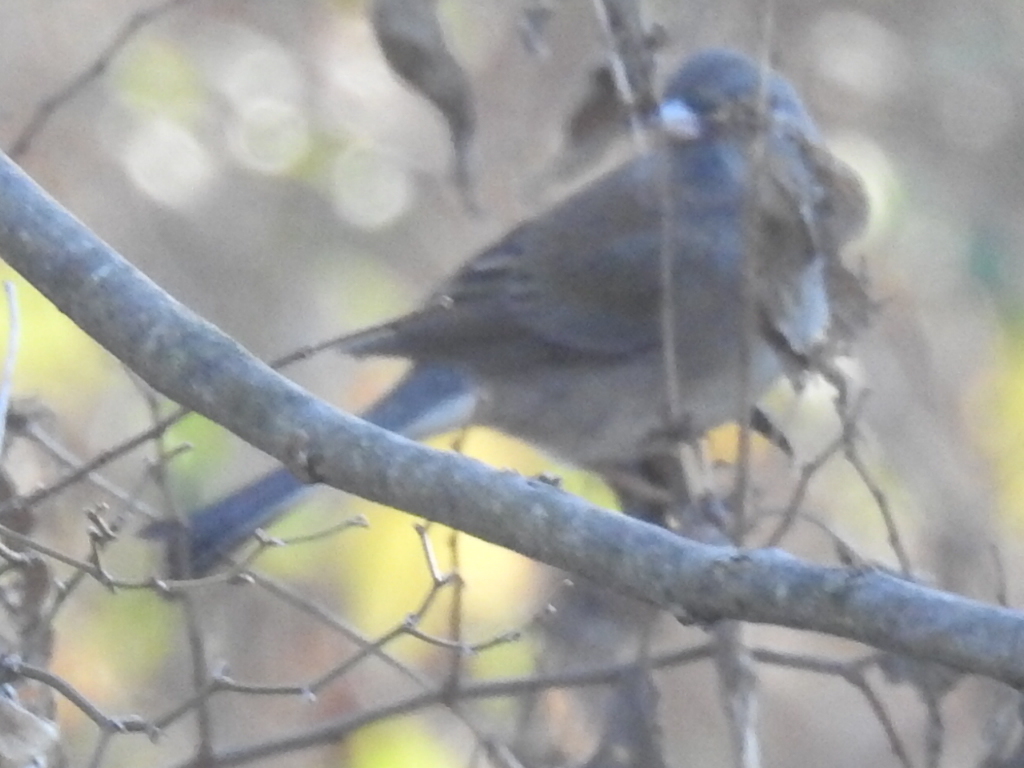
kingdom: Animalia
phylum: Chordata
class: Aves
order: Passeriformes
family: Passerellidae
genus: Junco
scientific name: Junco hyemalis
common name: Dark-eyed junco
